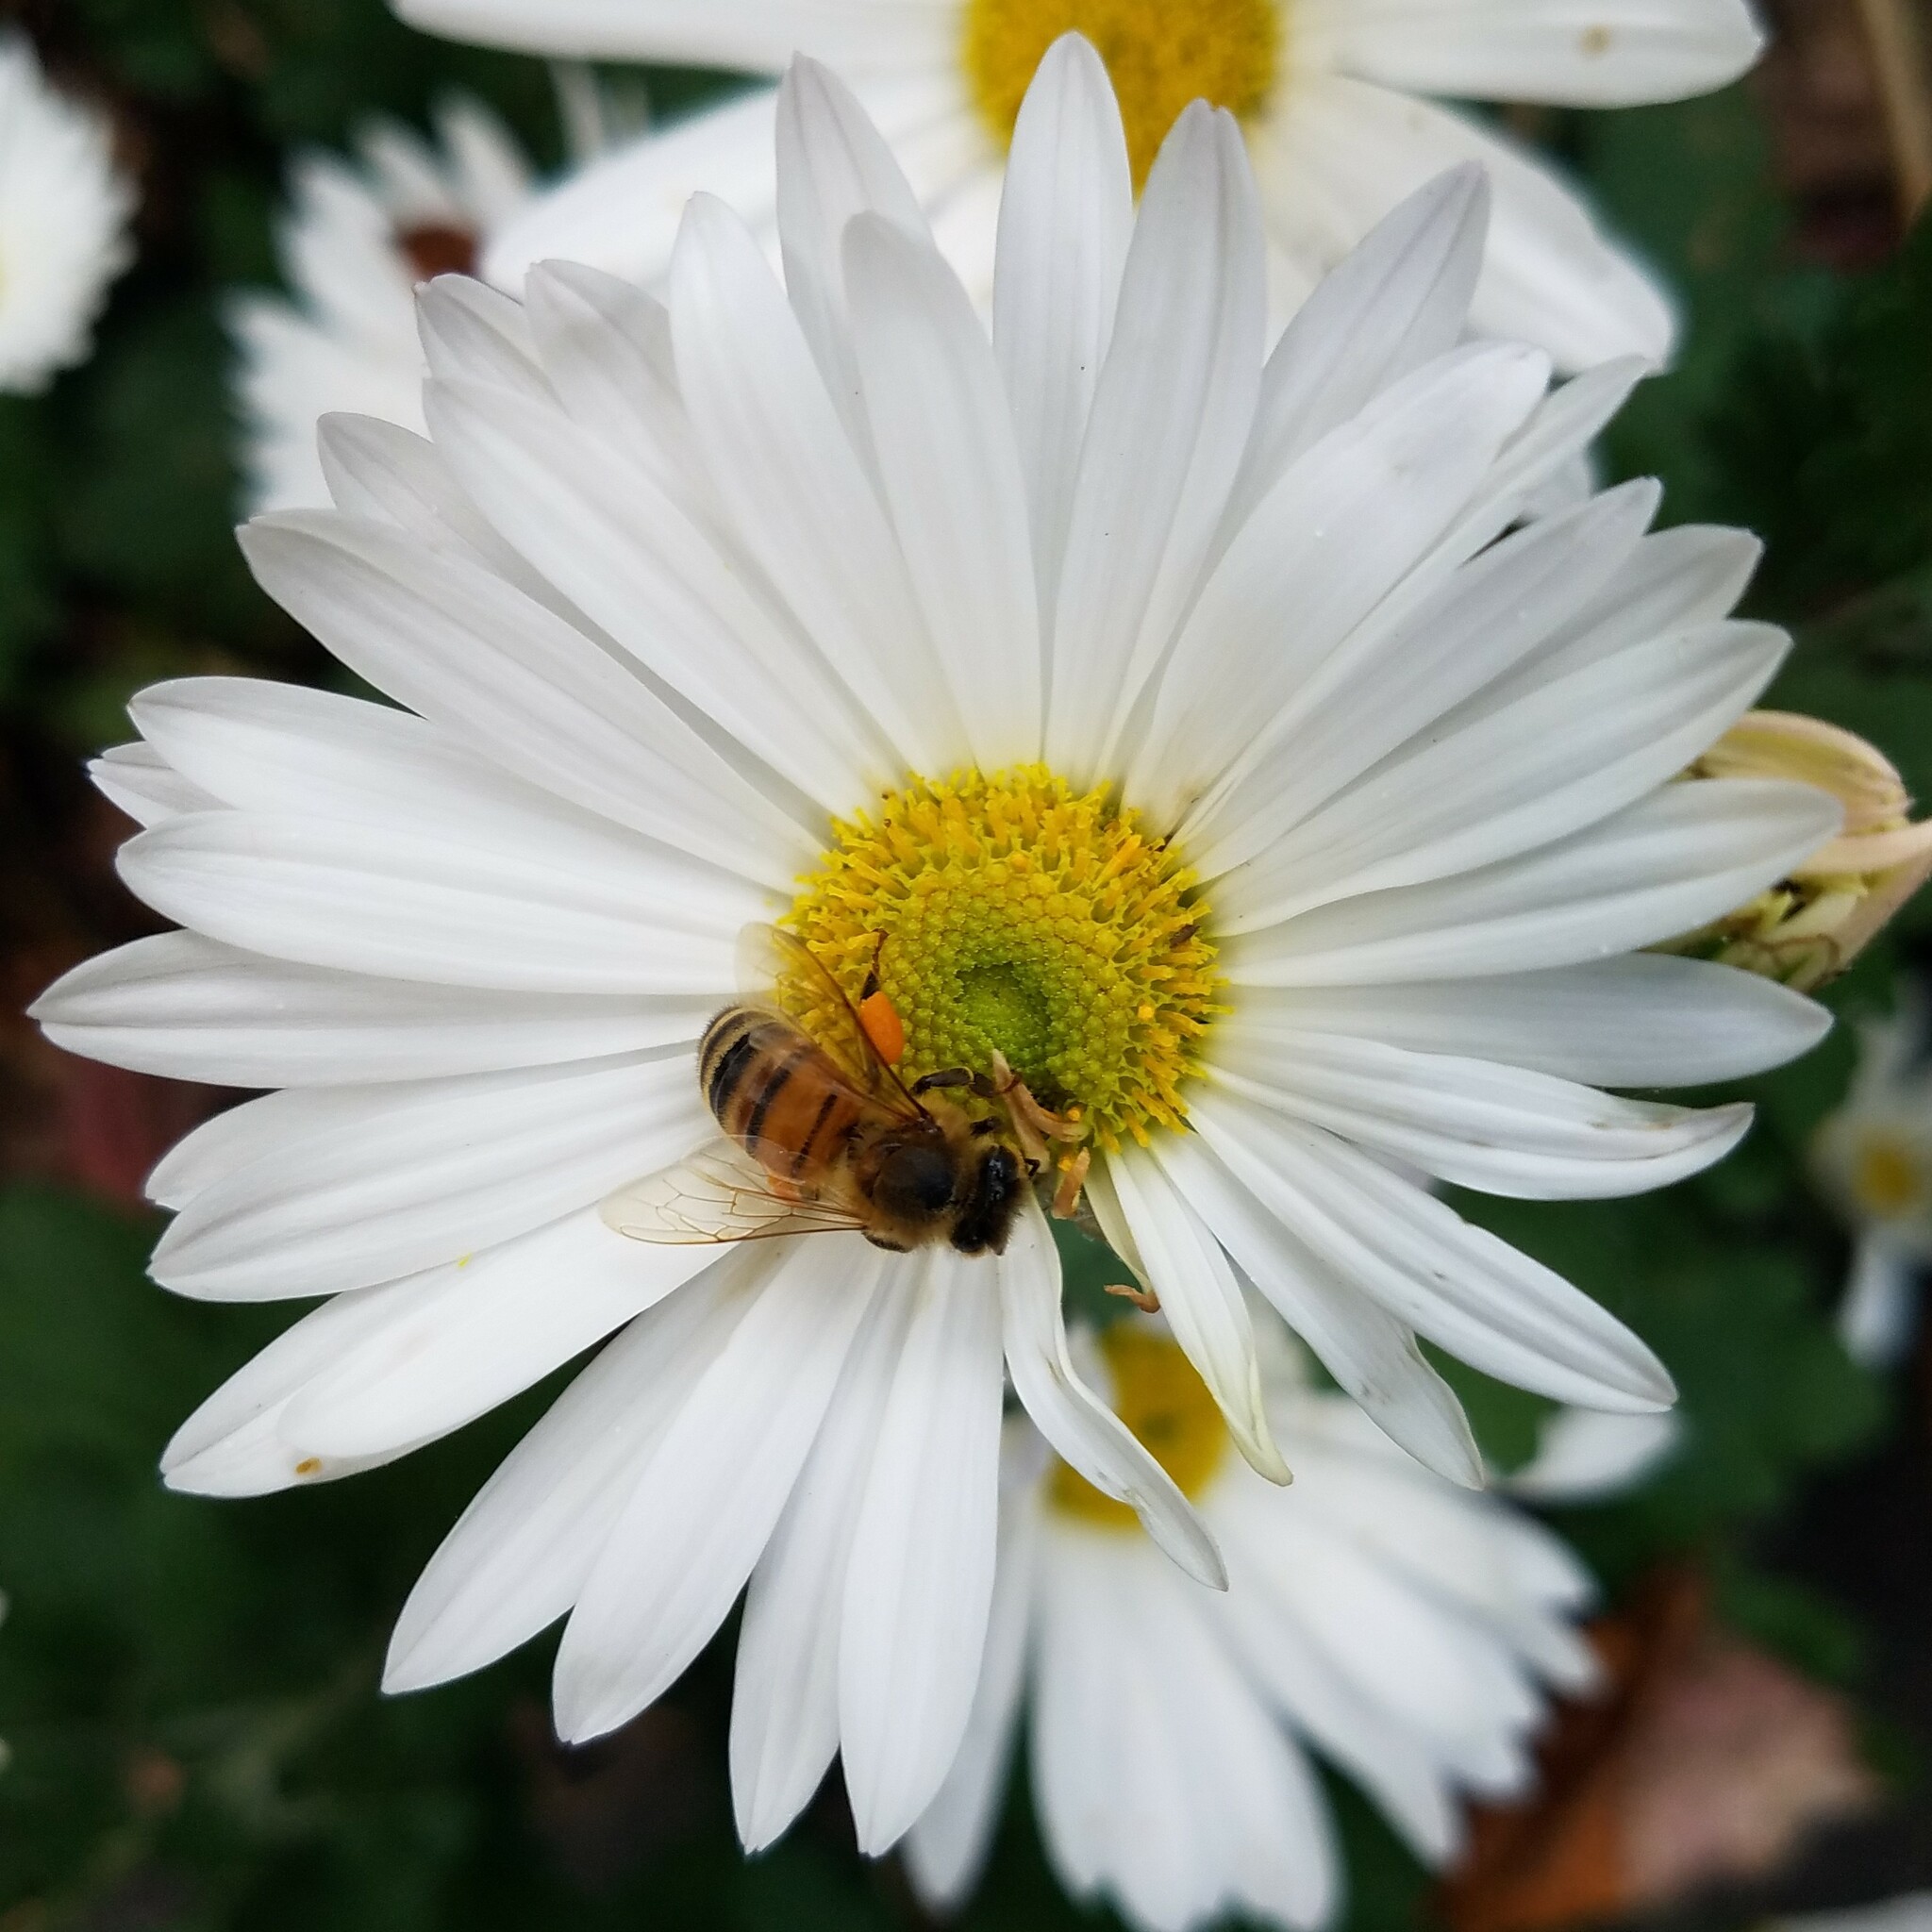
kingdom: Animalia
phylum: Arthropoda
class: Insecta
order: Hymenoptera
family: Apidae
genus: Apis
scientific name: Apis mellifera
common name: Honey bee
